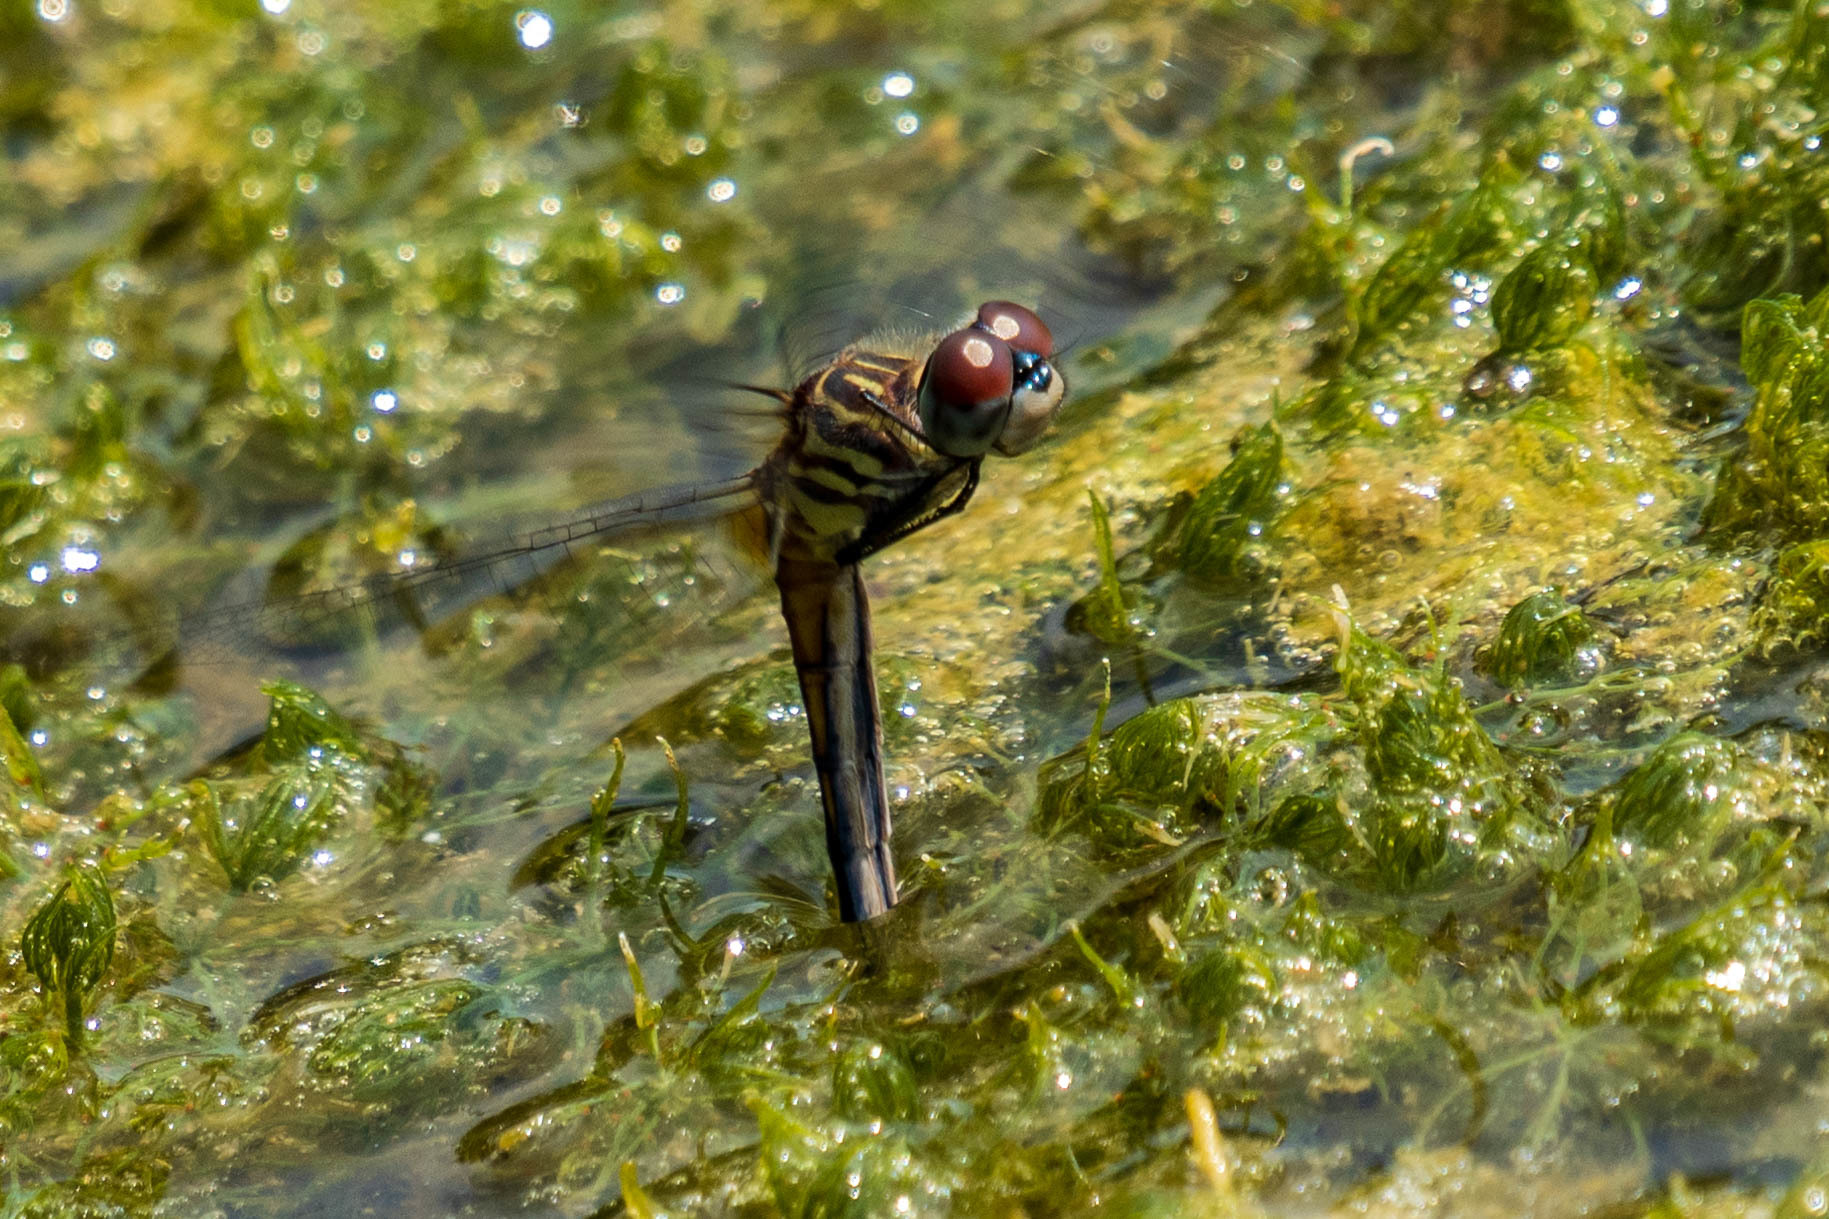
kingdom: Animalia
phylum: Arthropoda
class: Insecta
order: Odonata
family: Libellulidae
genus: Pachydiplax
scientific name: Pachydiplax longipennis
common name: Blue dasher
